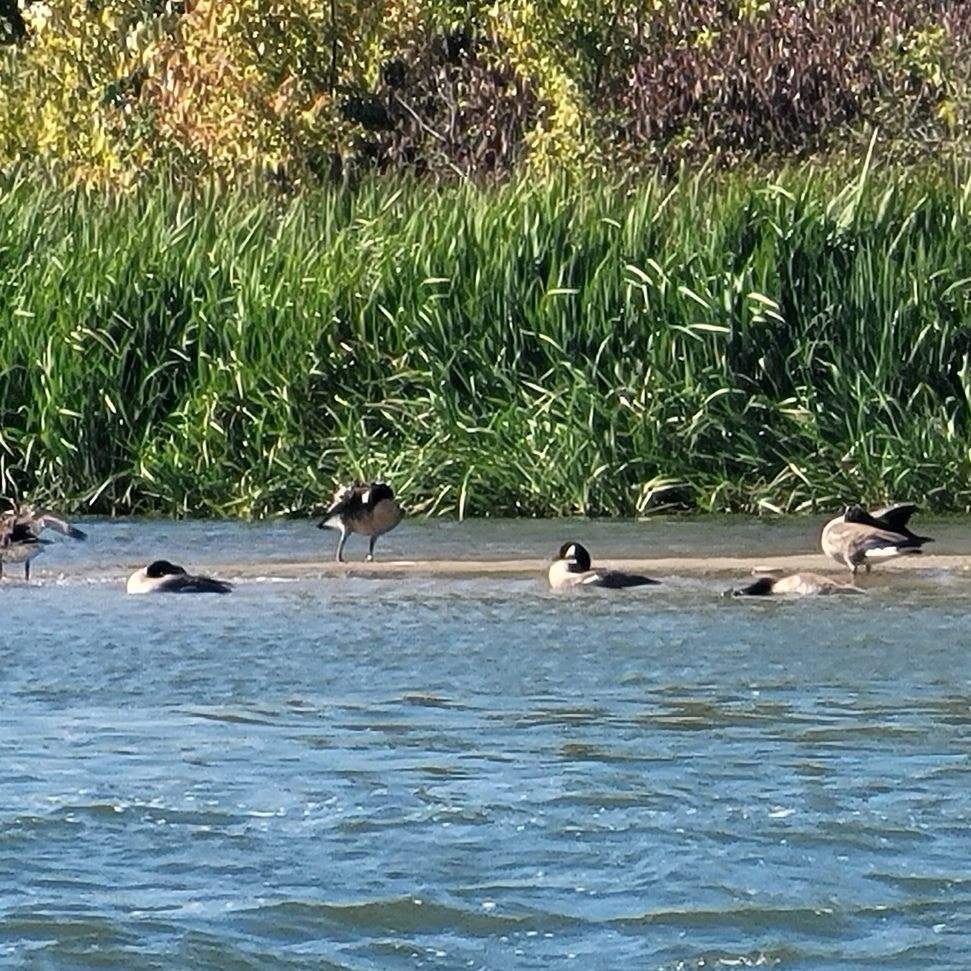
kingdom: Animalia
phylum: Chordata
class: Aves
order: Anseriformes
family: Anatidae
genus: Branta
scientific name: Branta canadensis
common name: Canada goose
